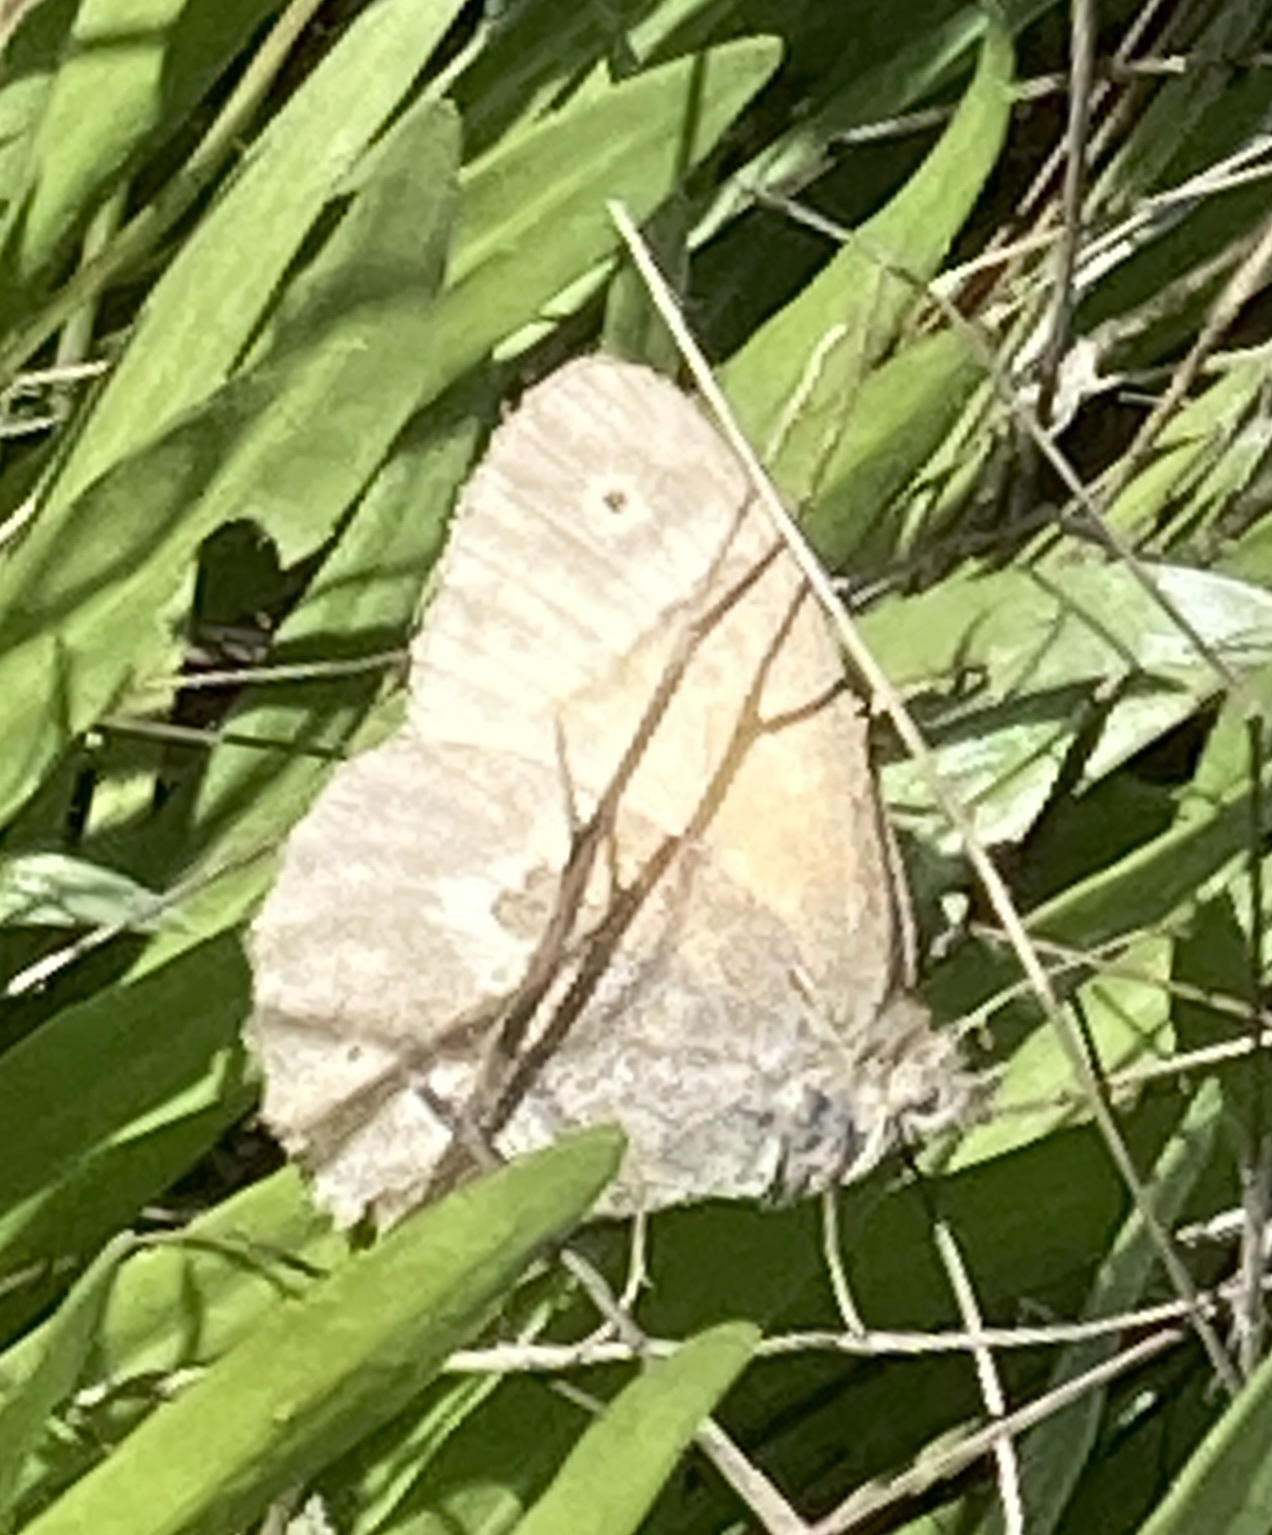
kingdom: Animalia
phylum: Arthropoda
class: Insecta
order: Lepidoptera
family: Nymphalidae
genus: Coenonympha
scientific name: Coenonympha california
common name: Common ringlet
